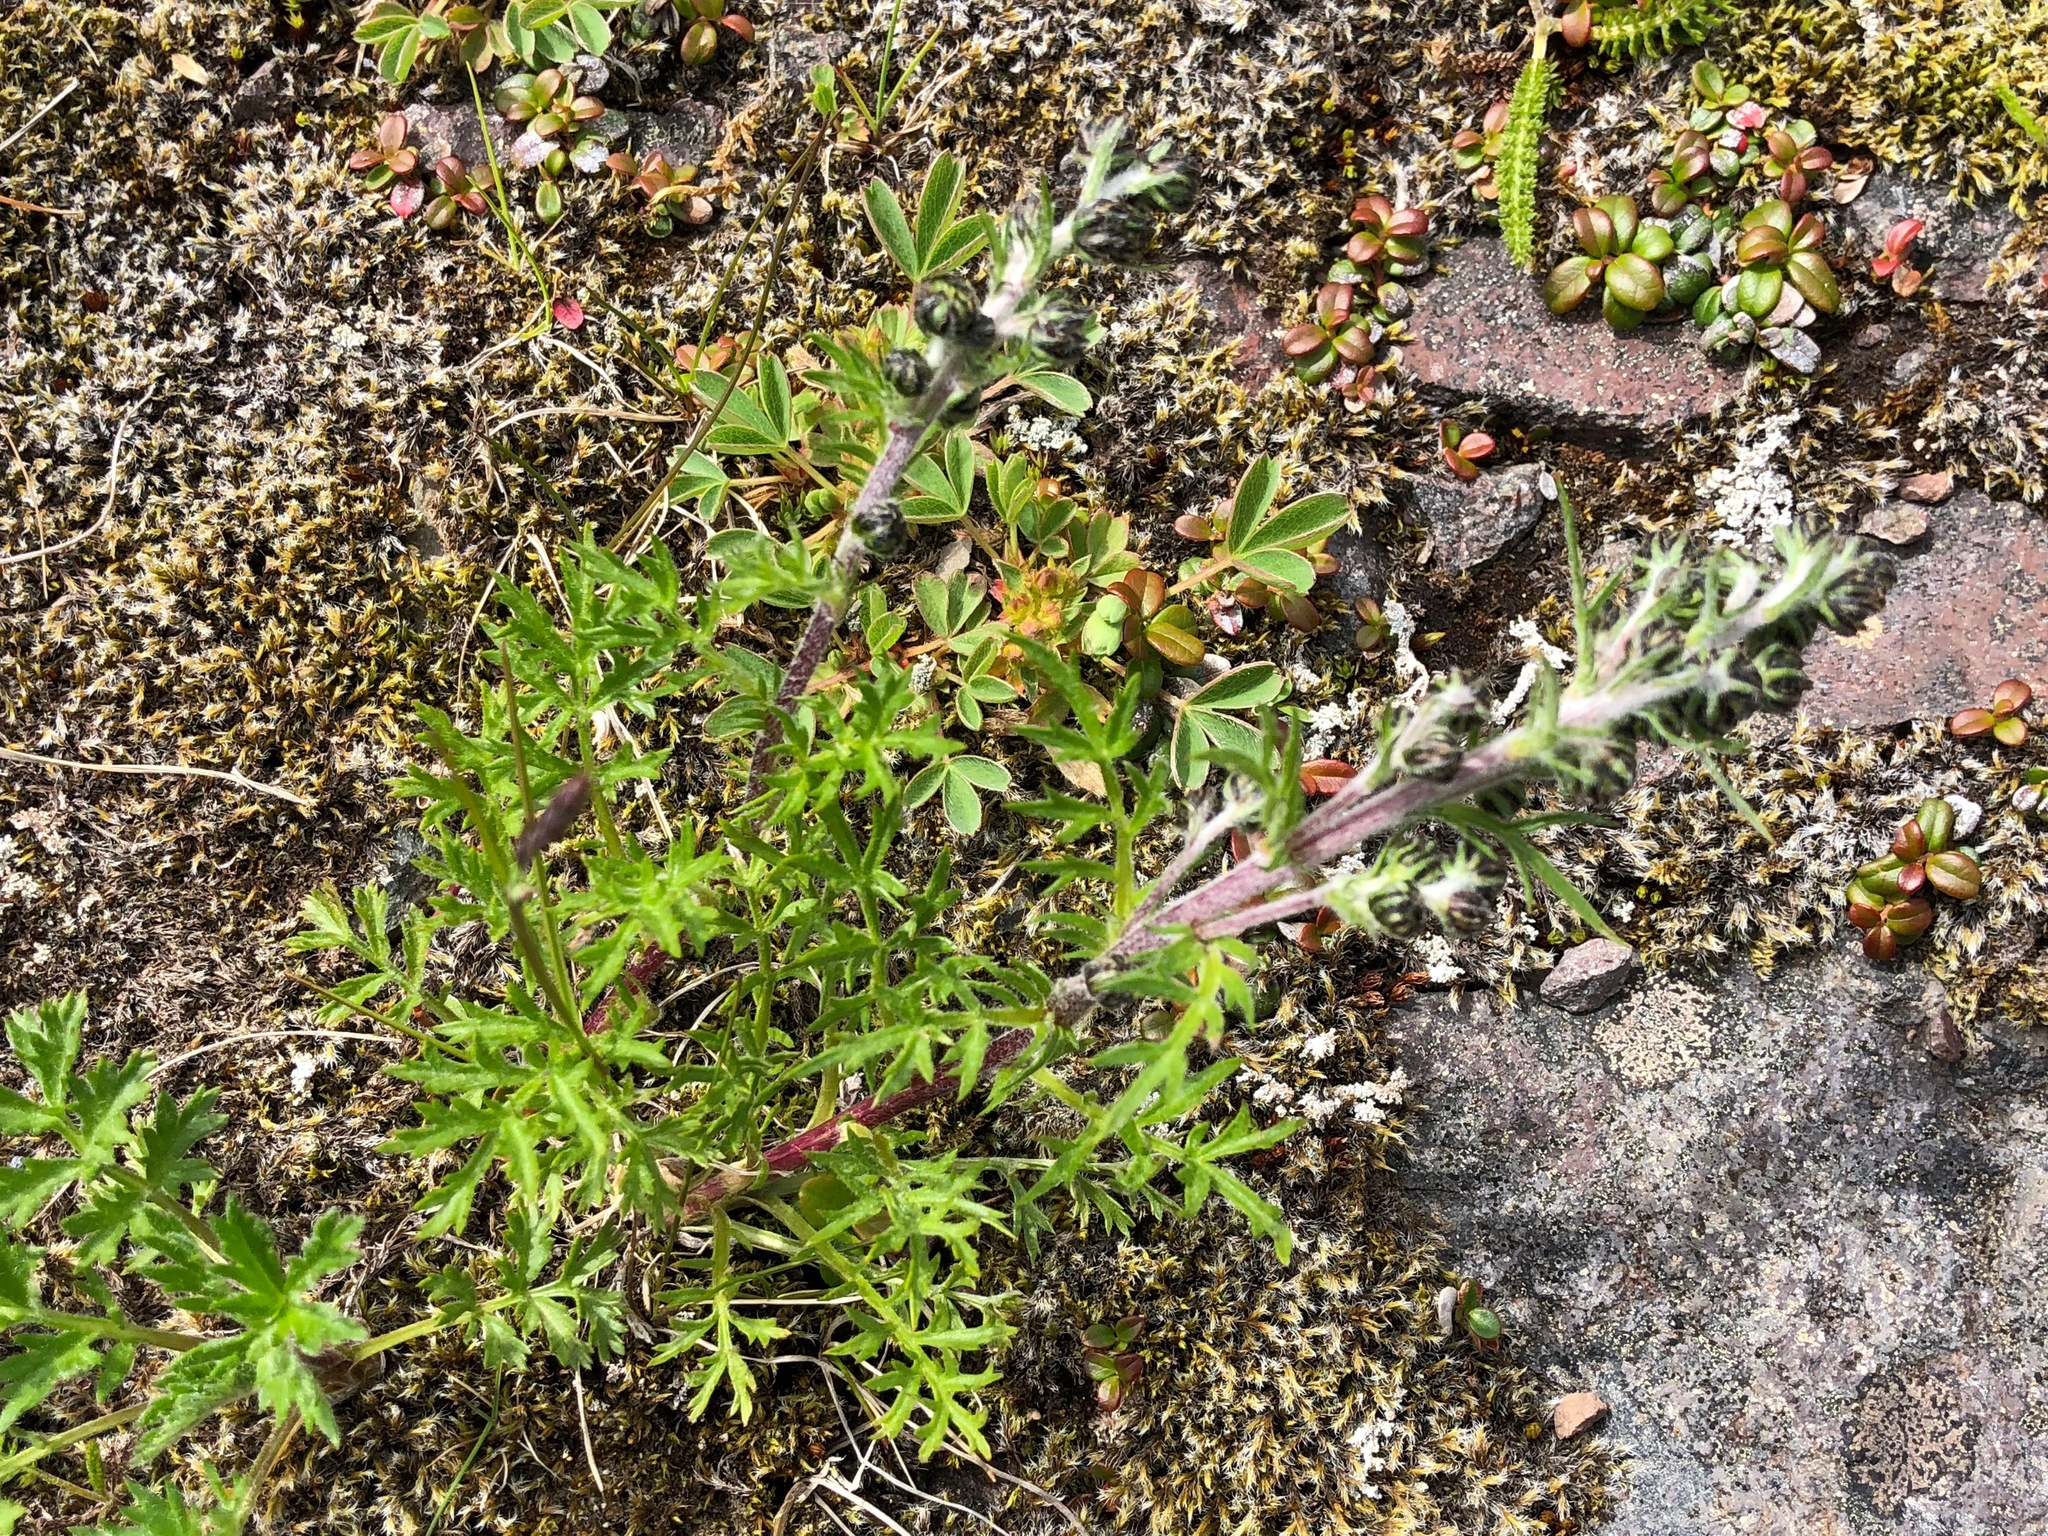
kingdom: Plantae
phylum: Tracheophyta
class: Magnoliopsida
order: Asterales
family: Asteraceae
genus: Artemisia
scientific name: Artemisia arctica
